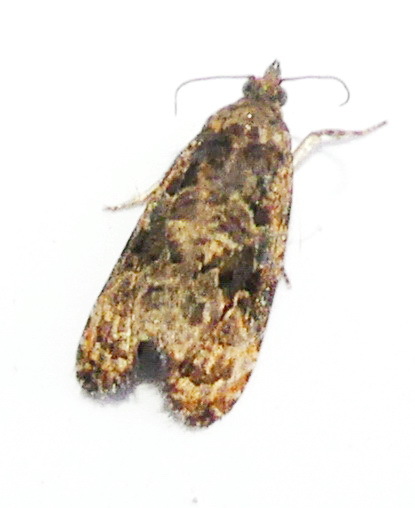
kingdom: Animalia
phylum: Arthropoda
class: Insecta
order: Lepidoptera
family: Tortricidae
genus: Endothenia
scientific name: Endothenia hebesana
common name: Verbena bud moth
